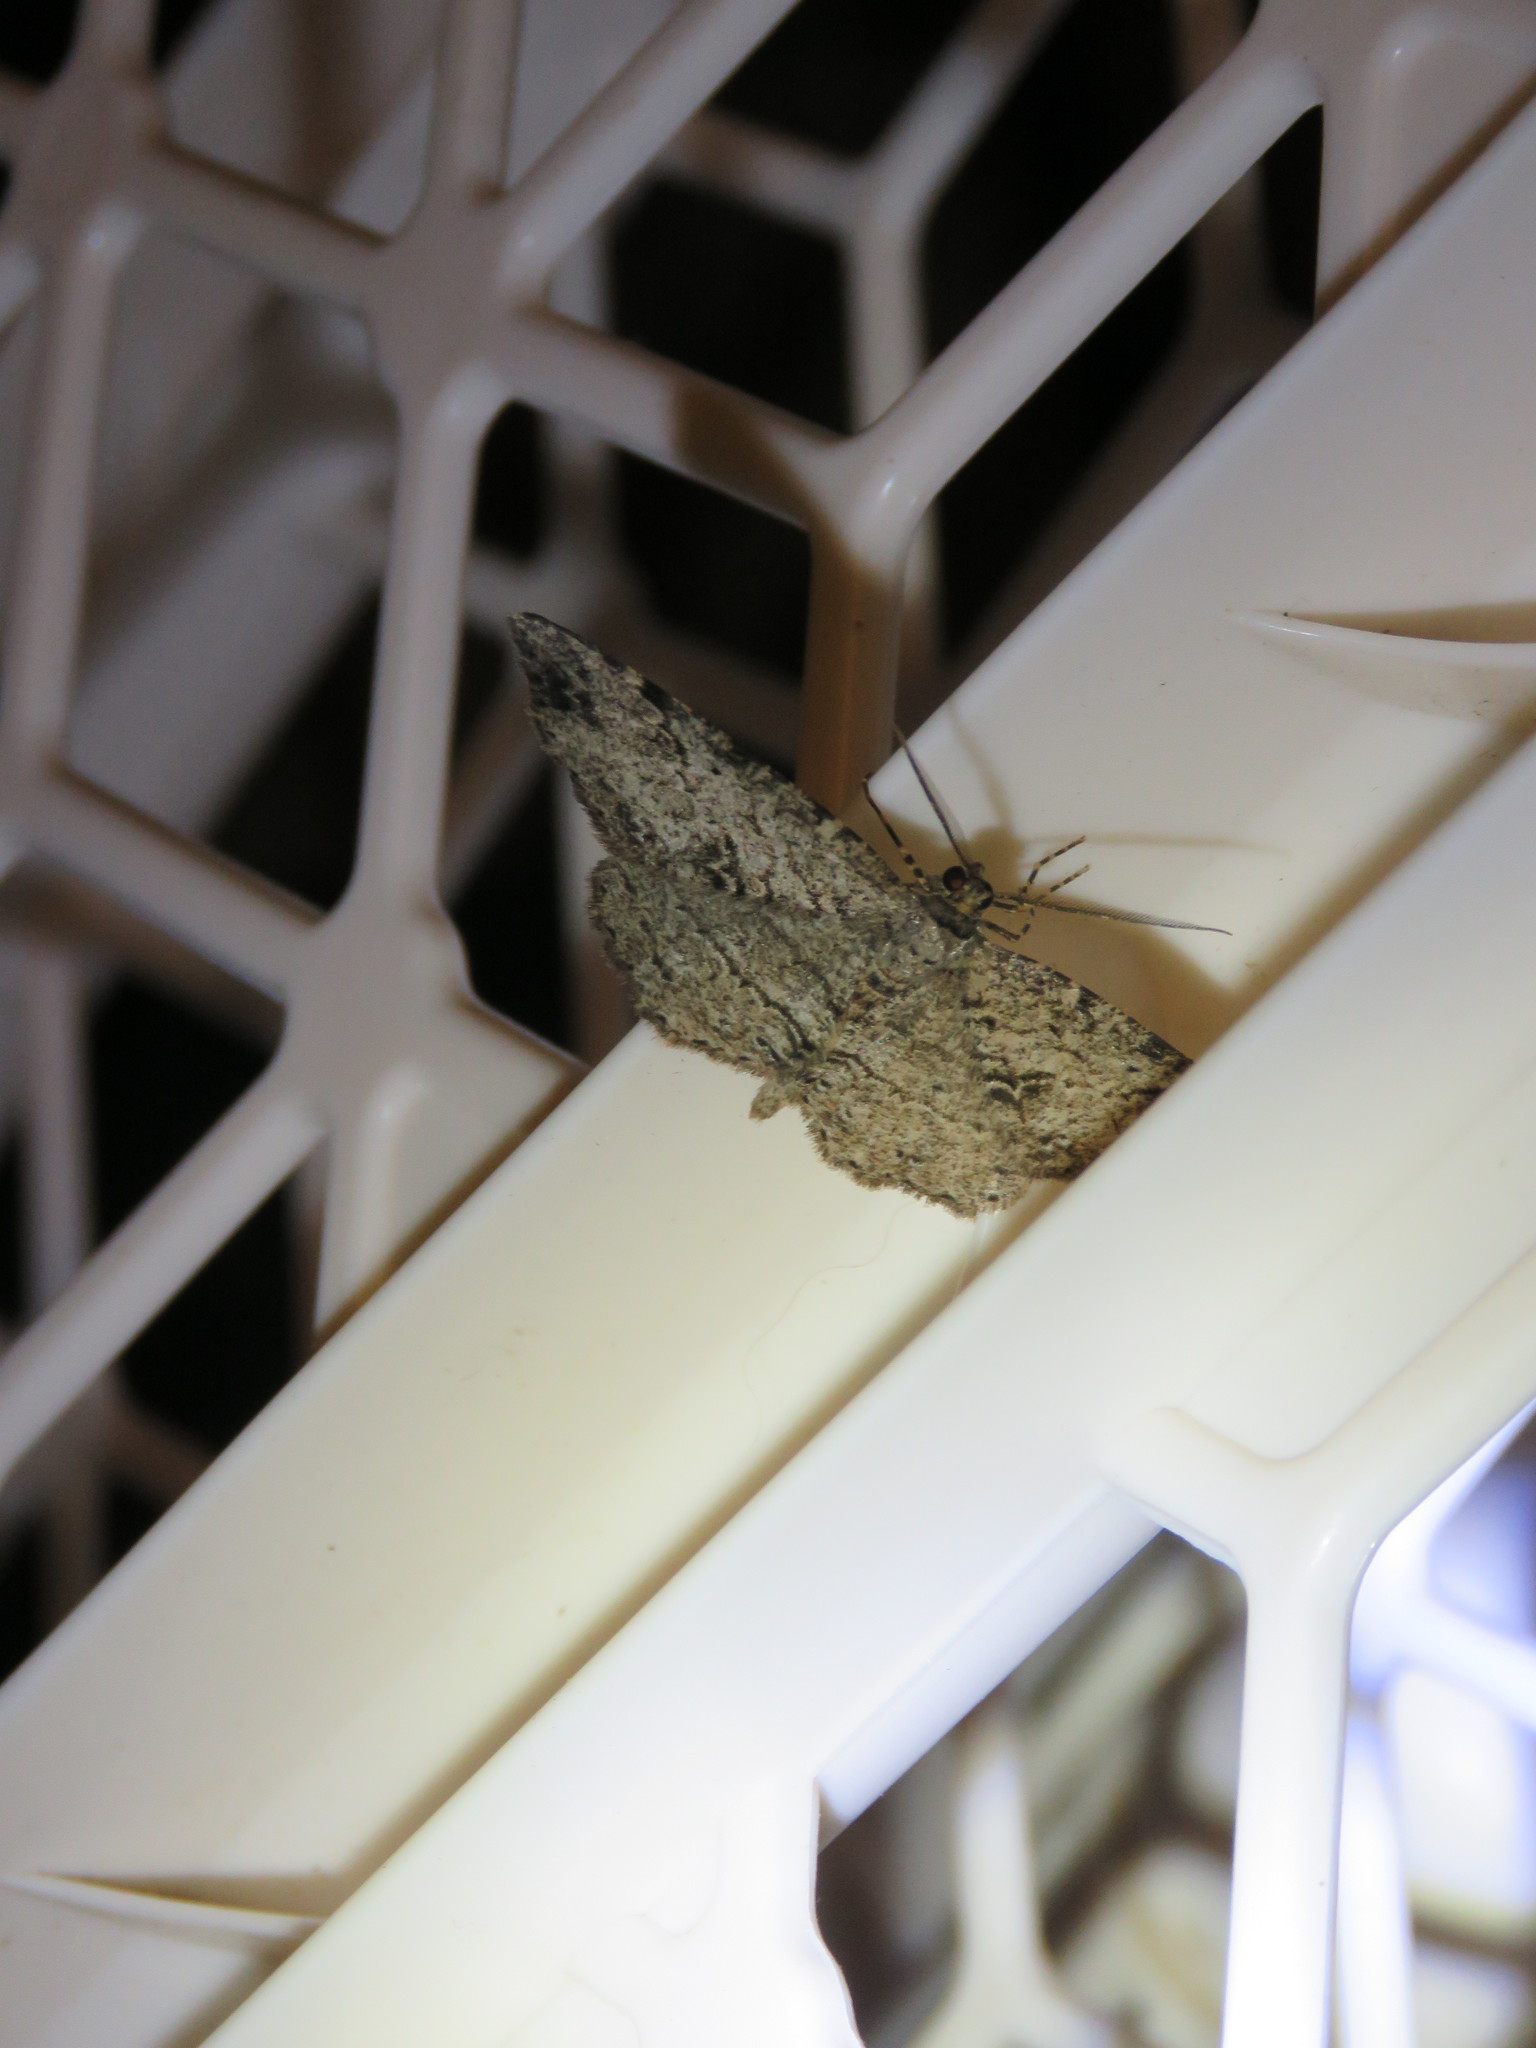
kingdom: Animalia
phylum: Arthropoda
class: Insecta
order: Lepidoptera
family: Geometridae
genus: Melanolophia
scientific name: Melanolophia canadaria
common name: Canadian melanolophia
